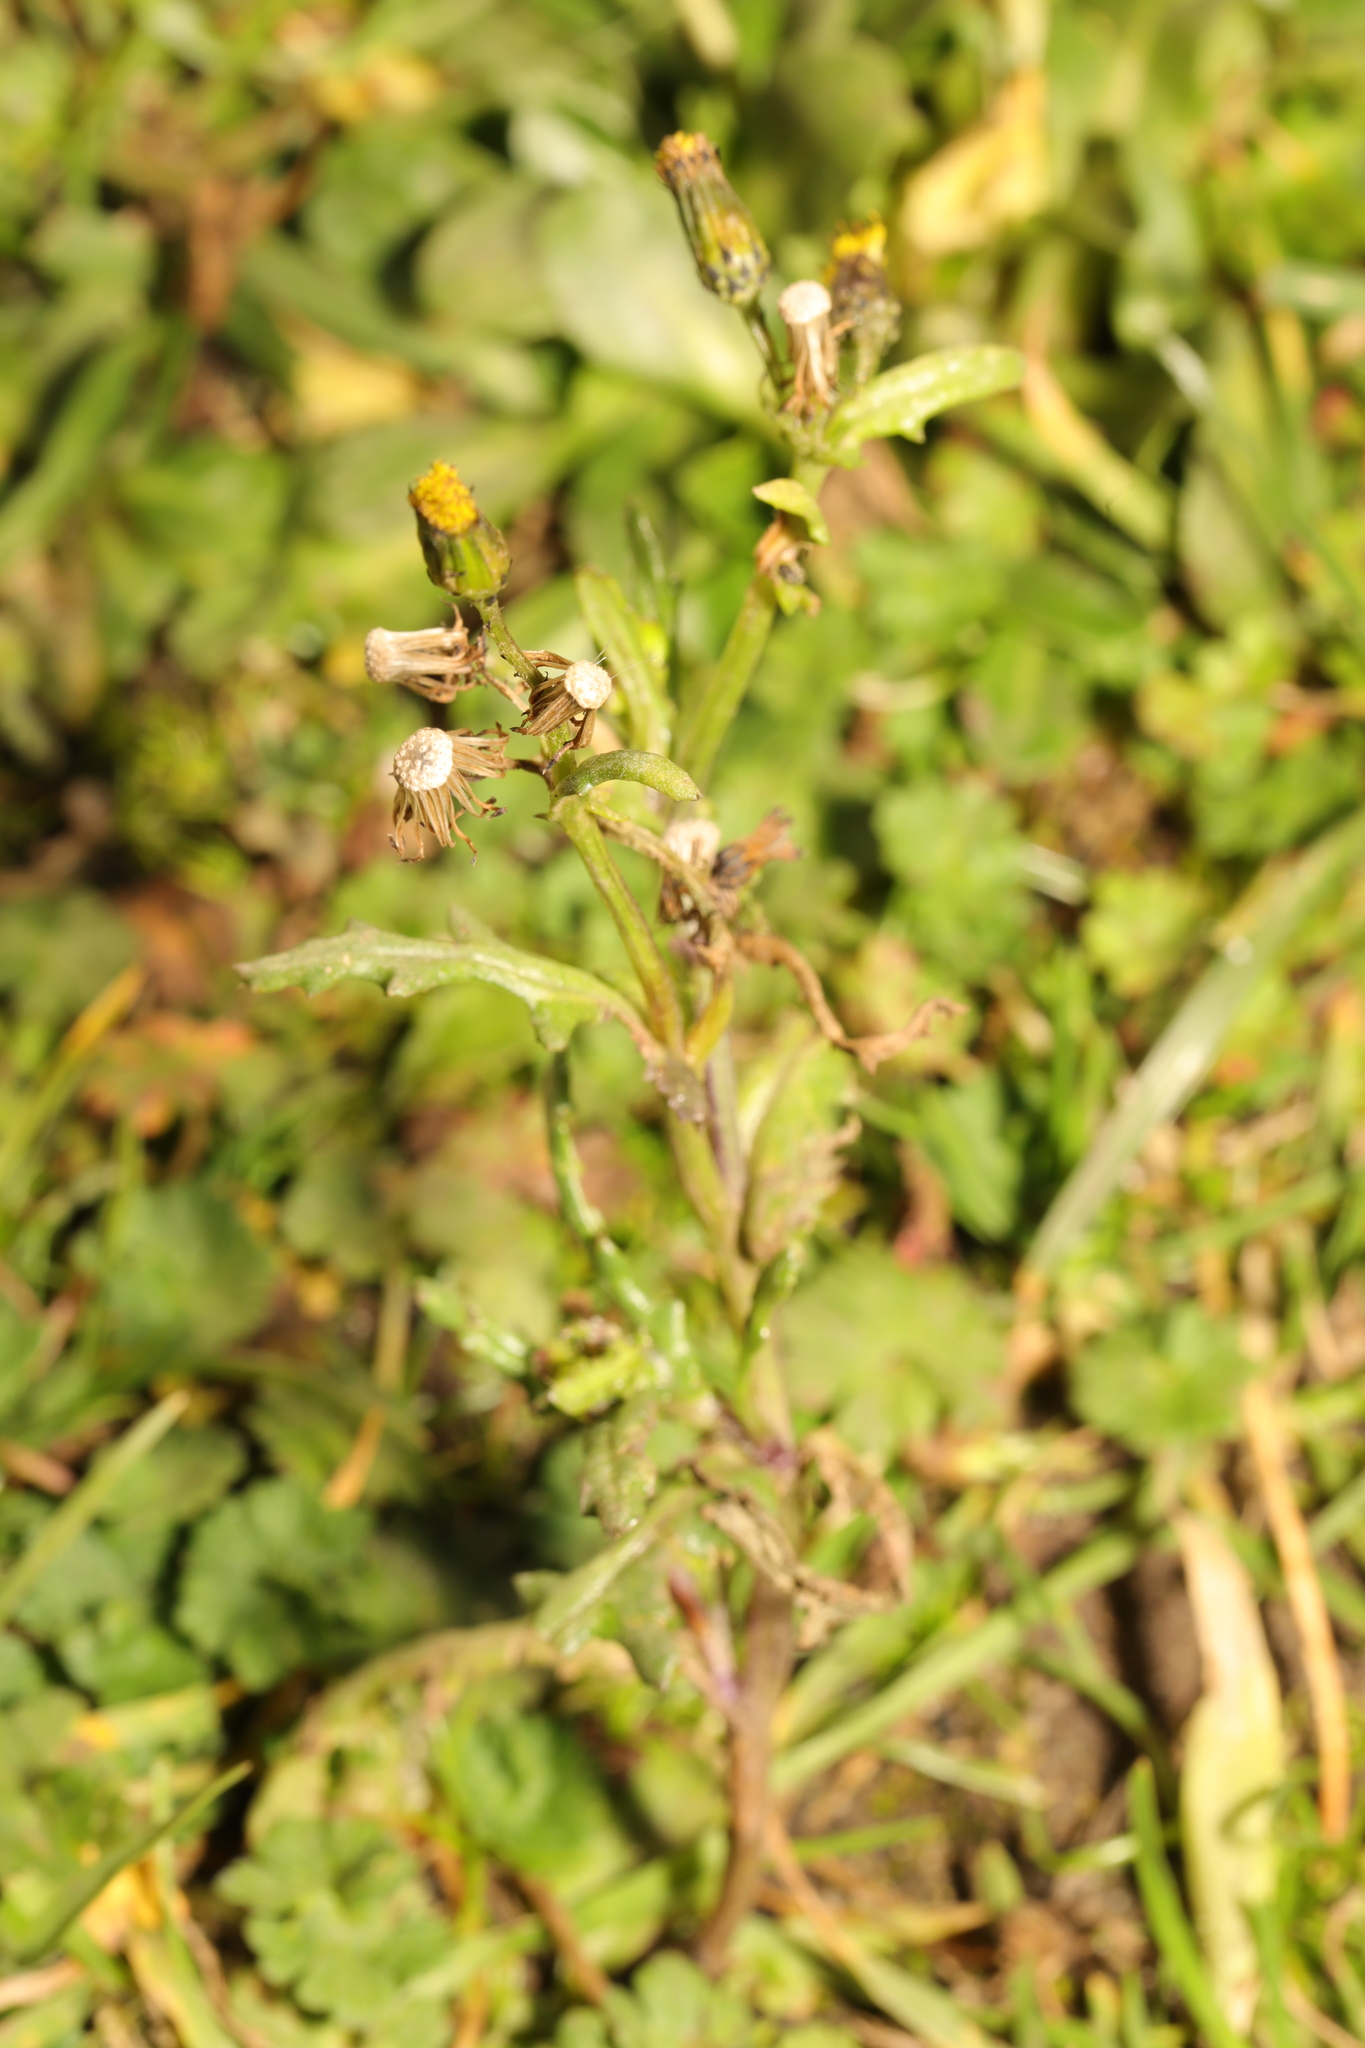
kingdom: Plantae
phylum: Tracheophyta
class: Magnoliopsida
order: Asterales
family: Asteraceae
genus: Senecio
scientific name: Senecio vulgaris
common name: Old-man-in-the-spring
